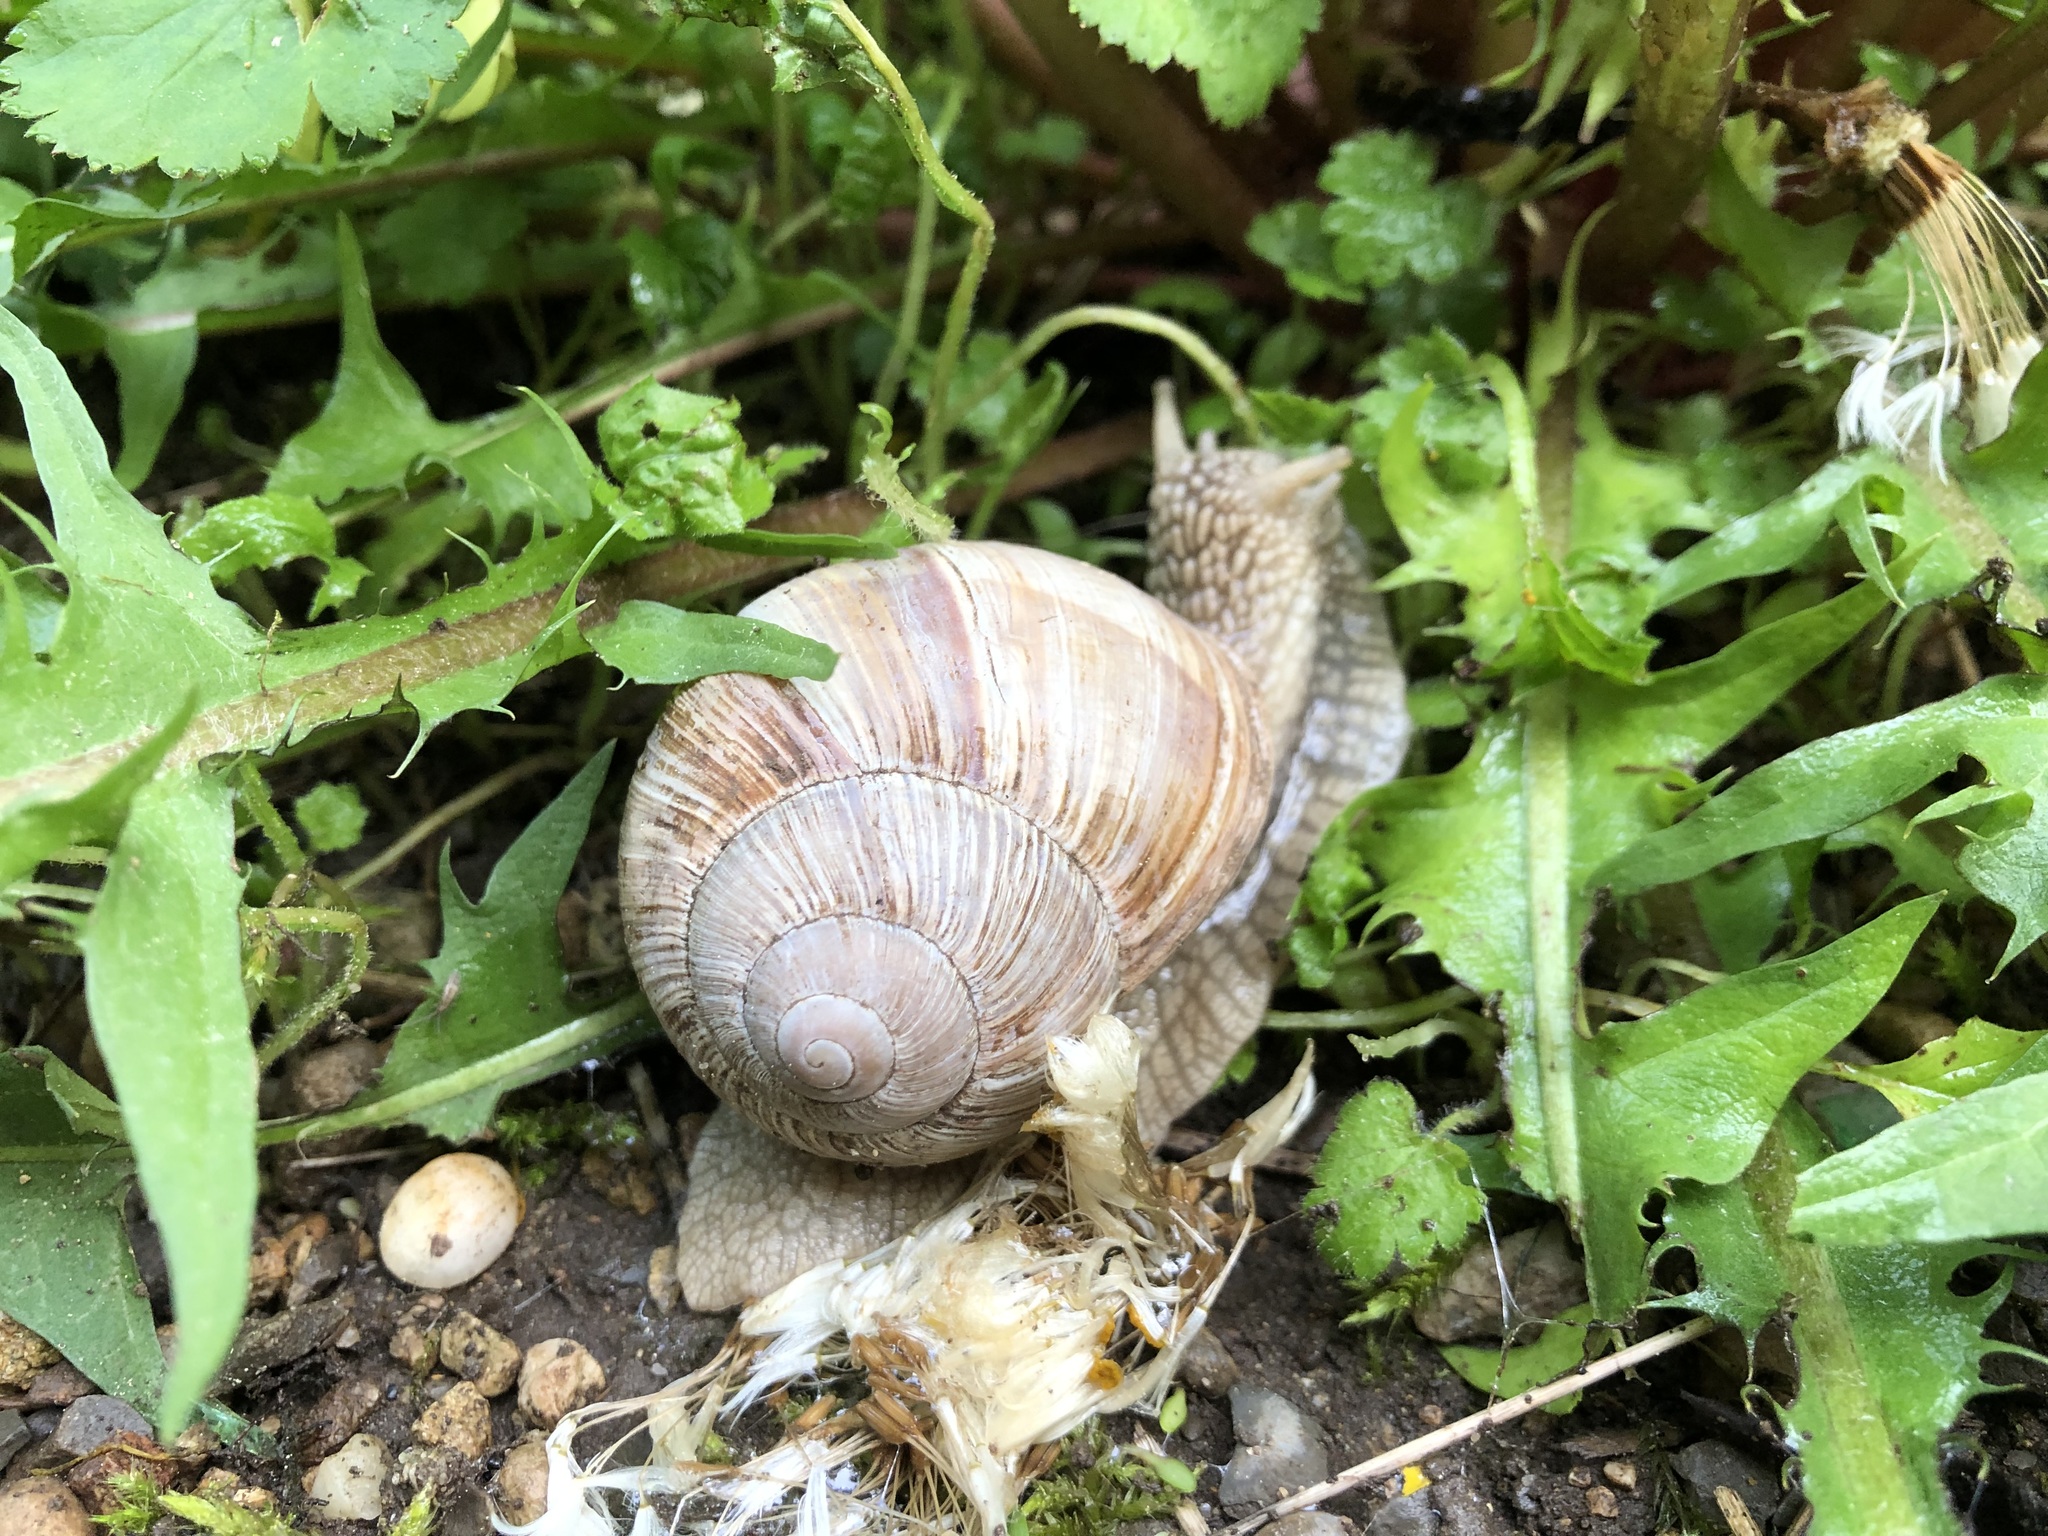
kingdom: Animalia
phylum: Mollusca
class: Gastropoda
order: Stylommatophora
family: Helicidae
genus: Helix
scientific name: Helix pomatia
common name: Roman snail
